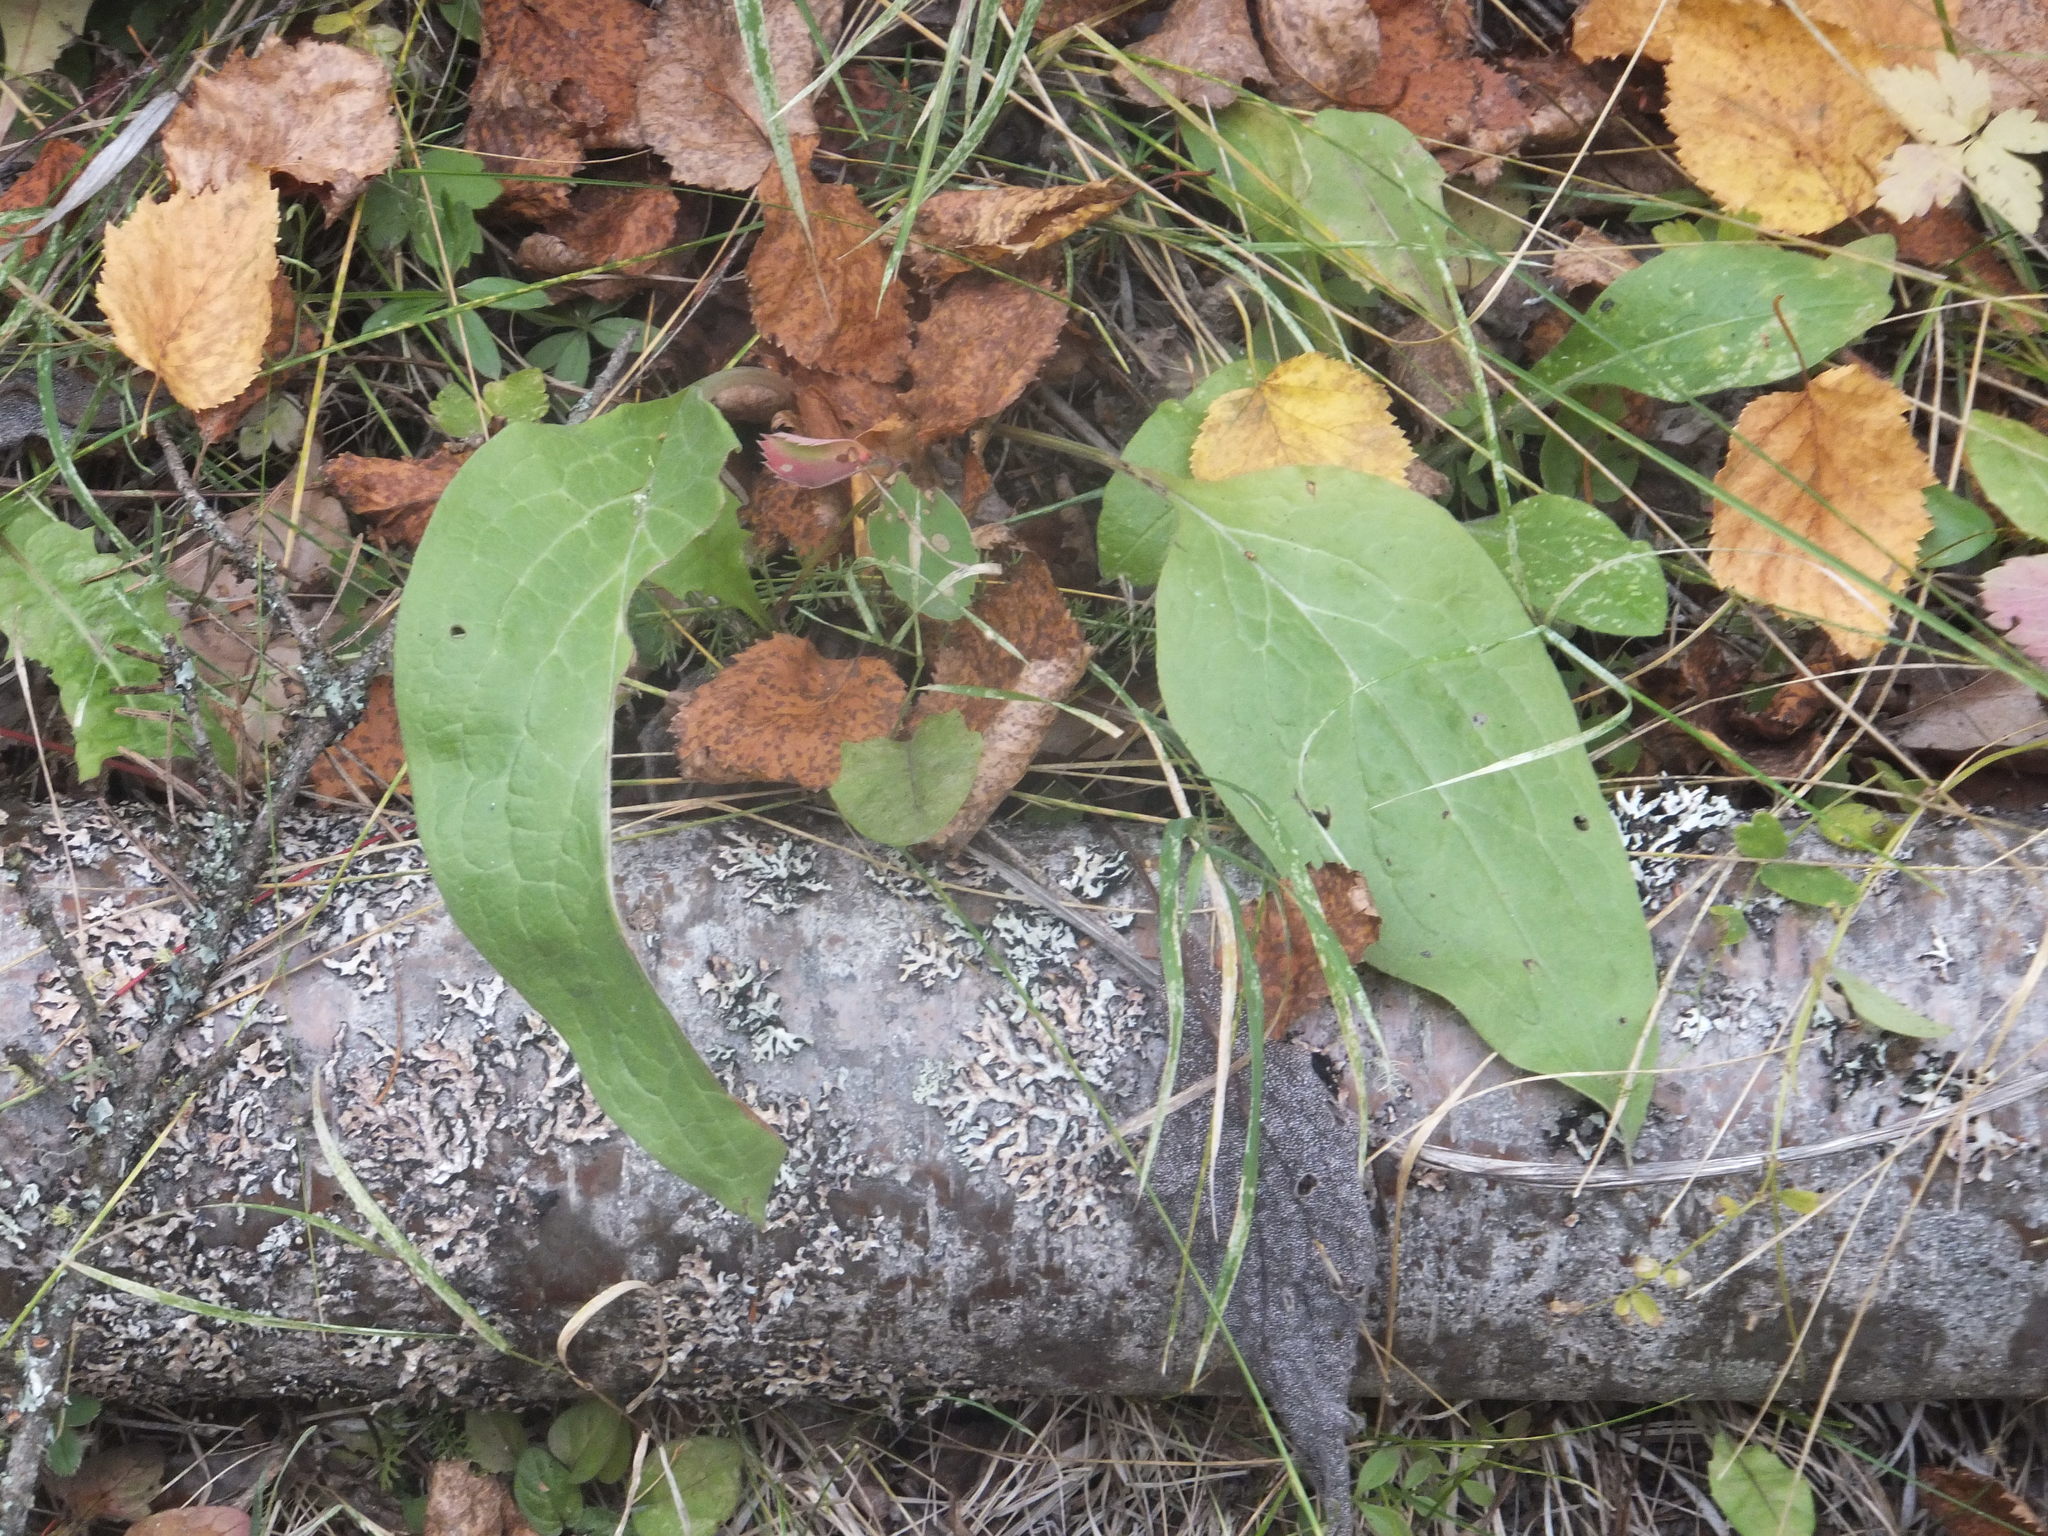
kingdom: Plantae
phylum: Tracheophyta
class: Magnoliopsida
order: Boraginales
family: Boraginaceae
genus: Cynoglossum
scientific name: Cynoglossum officinale
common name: Hound's-tongue
